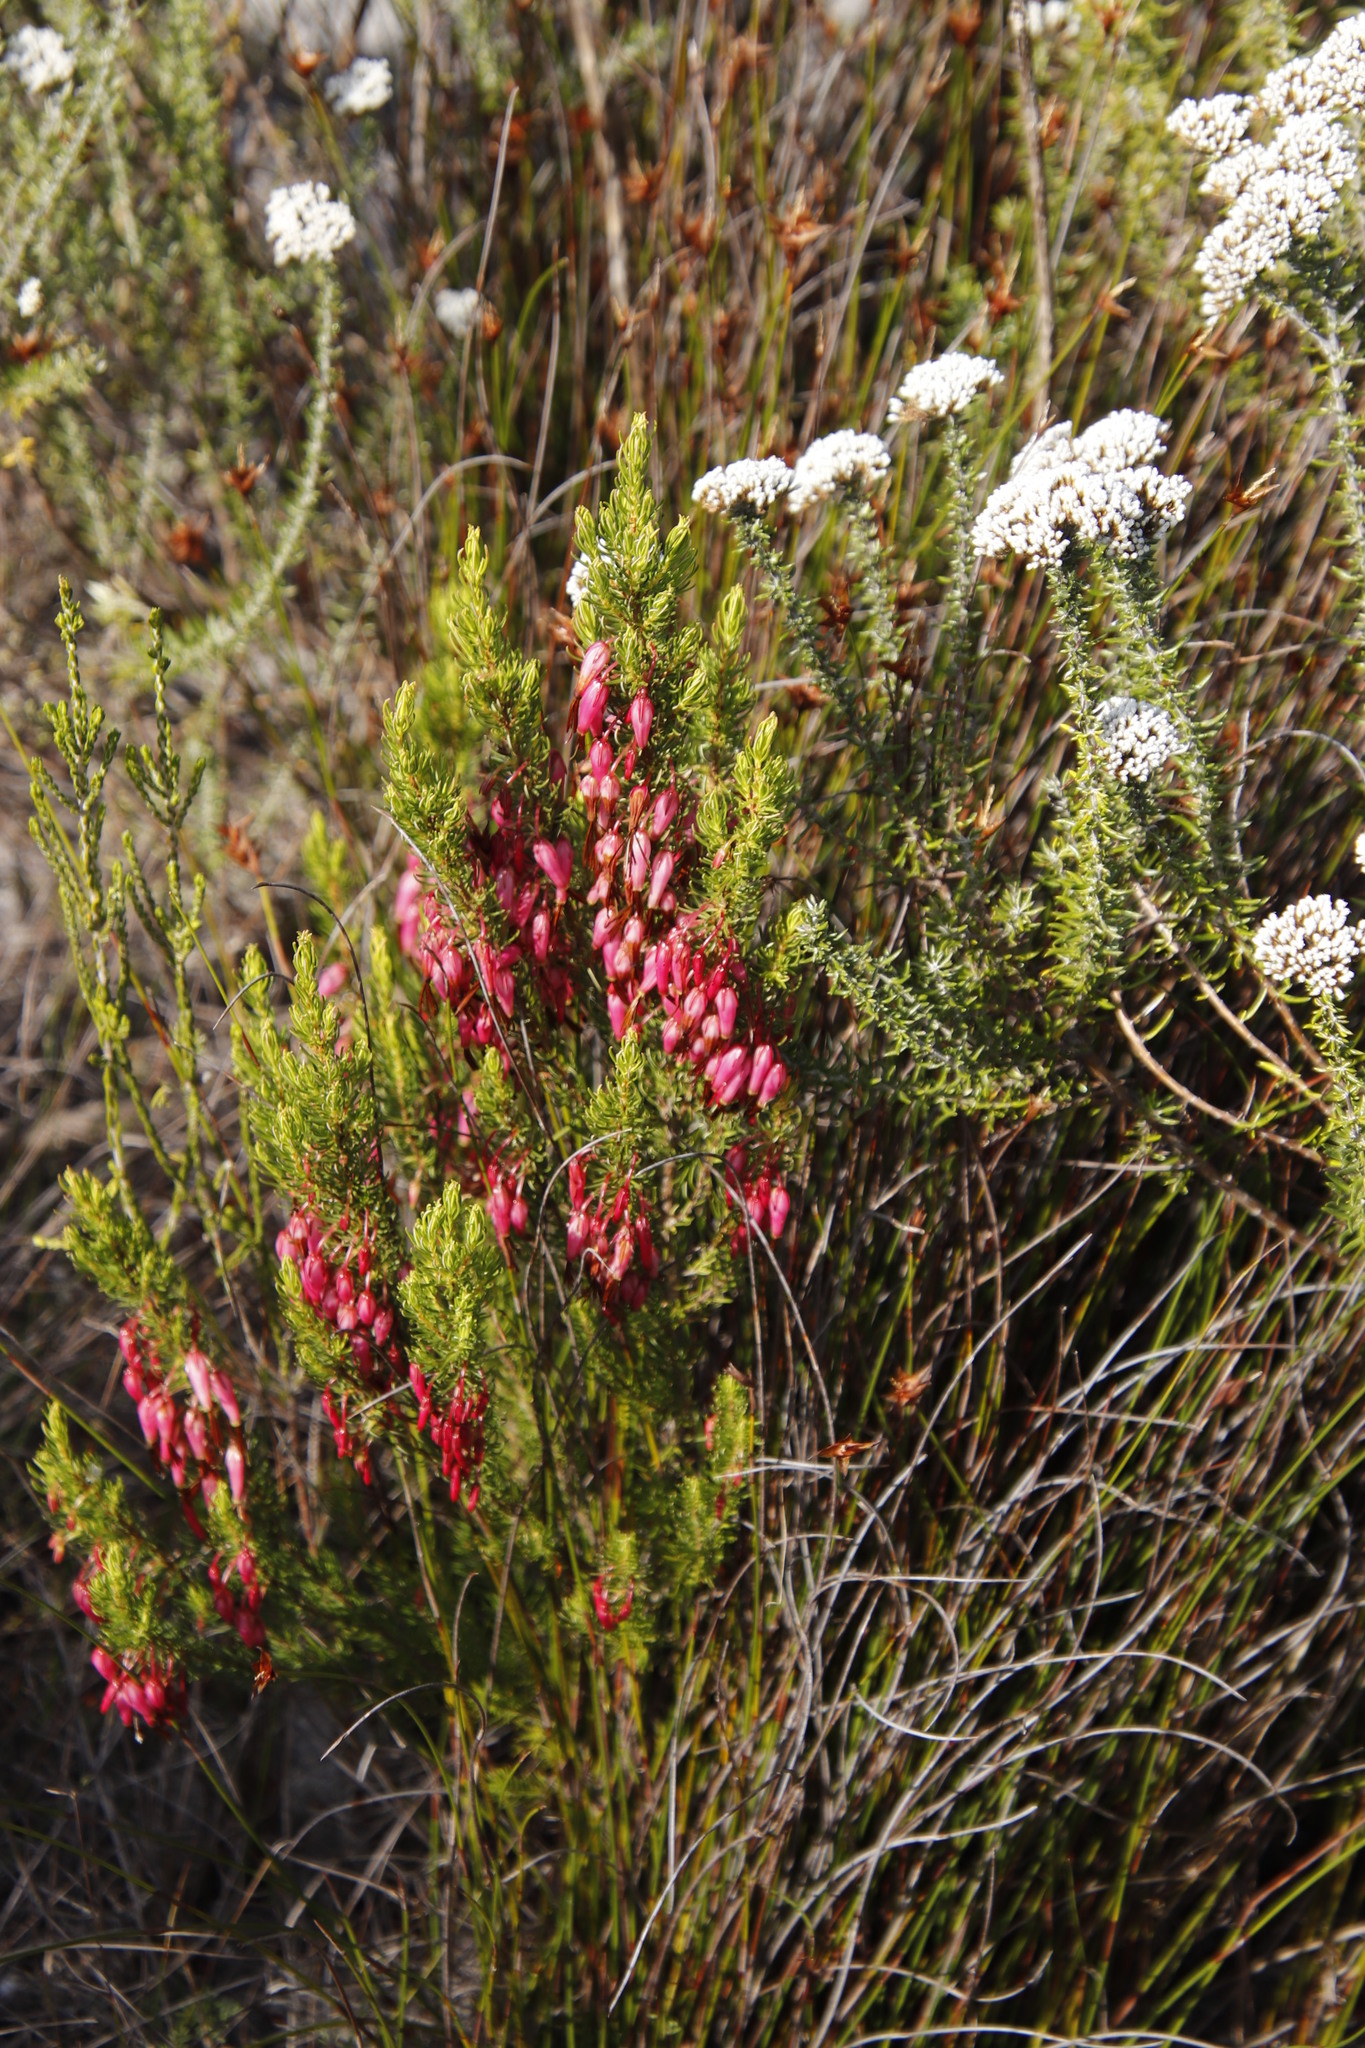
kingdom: Plantae
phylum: Tracheophyta
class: Magnoliopsida
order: Ericales
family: Ericaceae
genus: Erica
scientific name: Erica plukenetii
